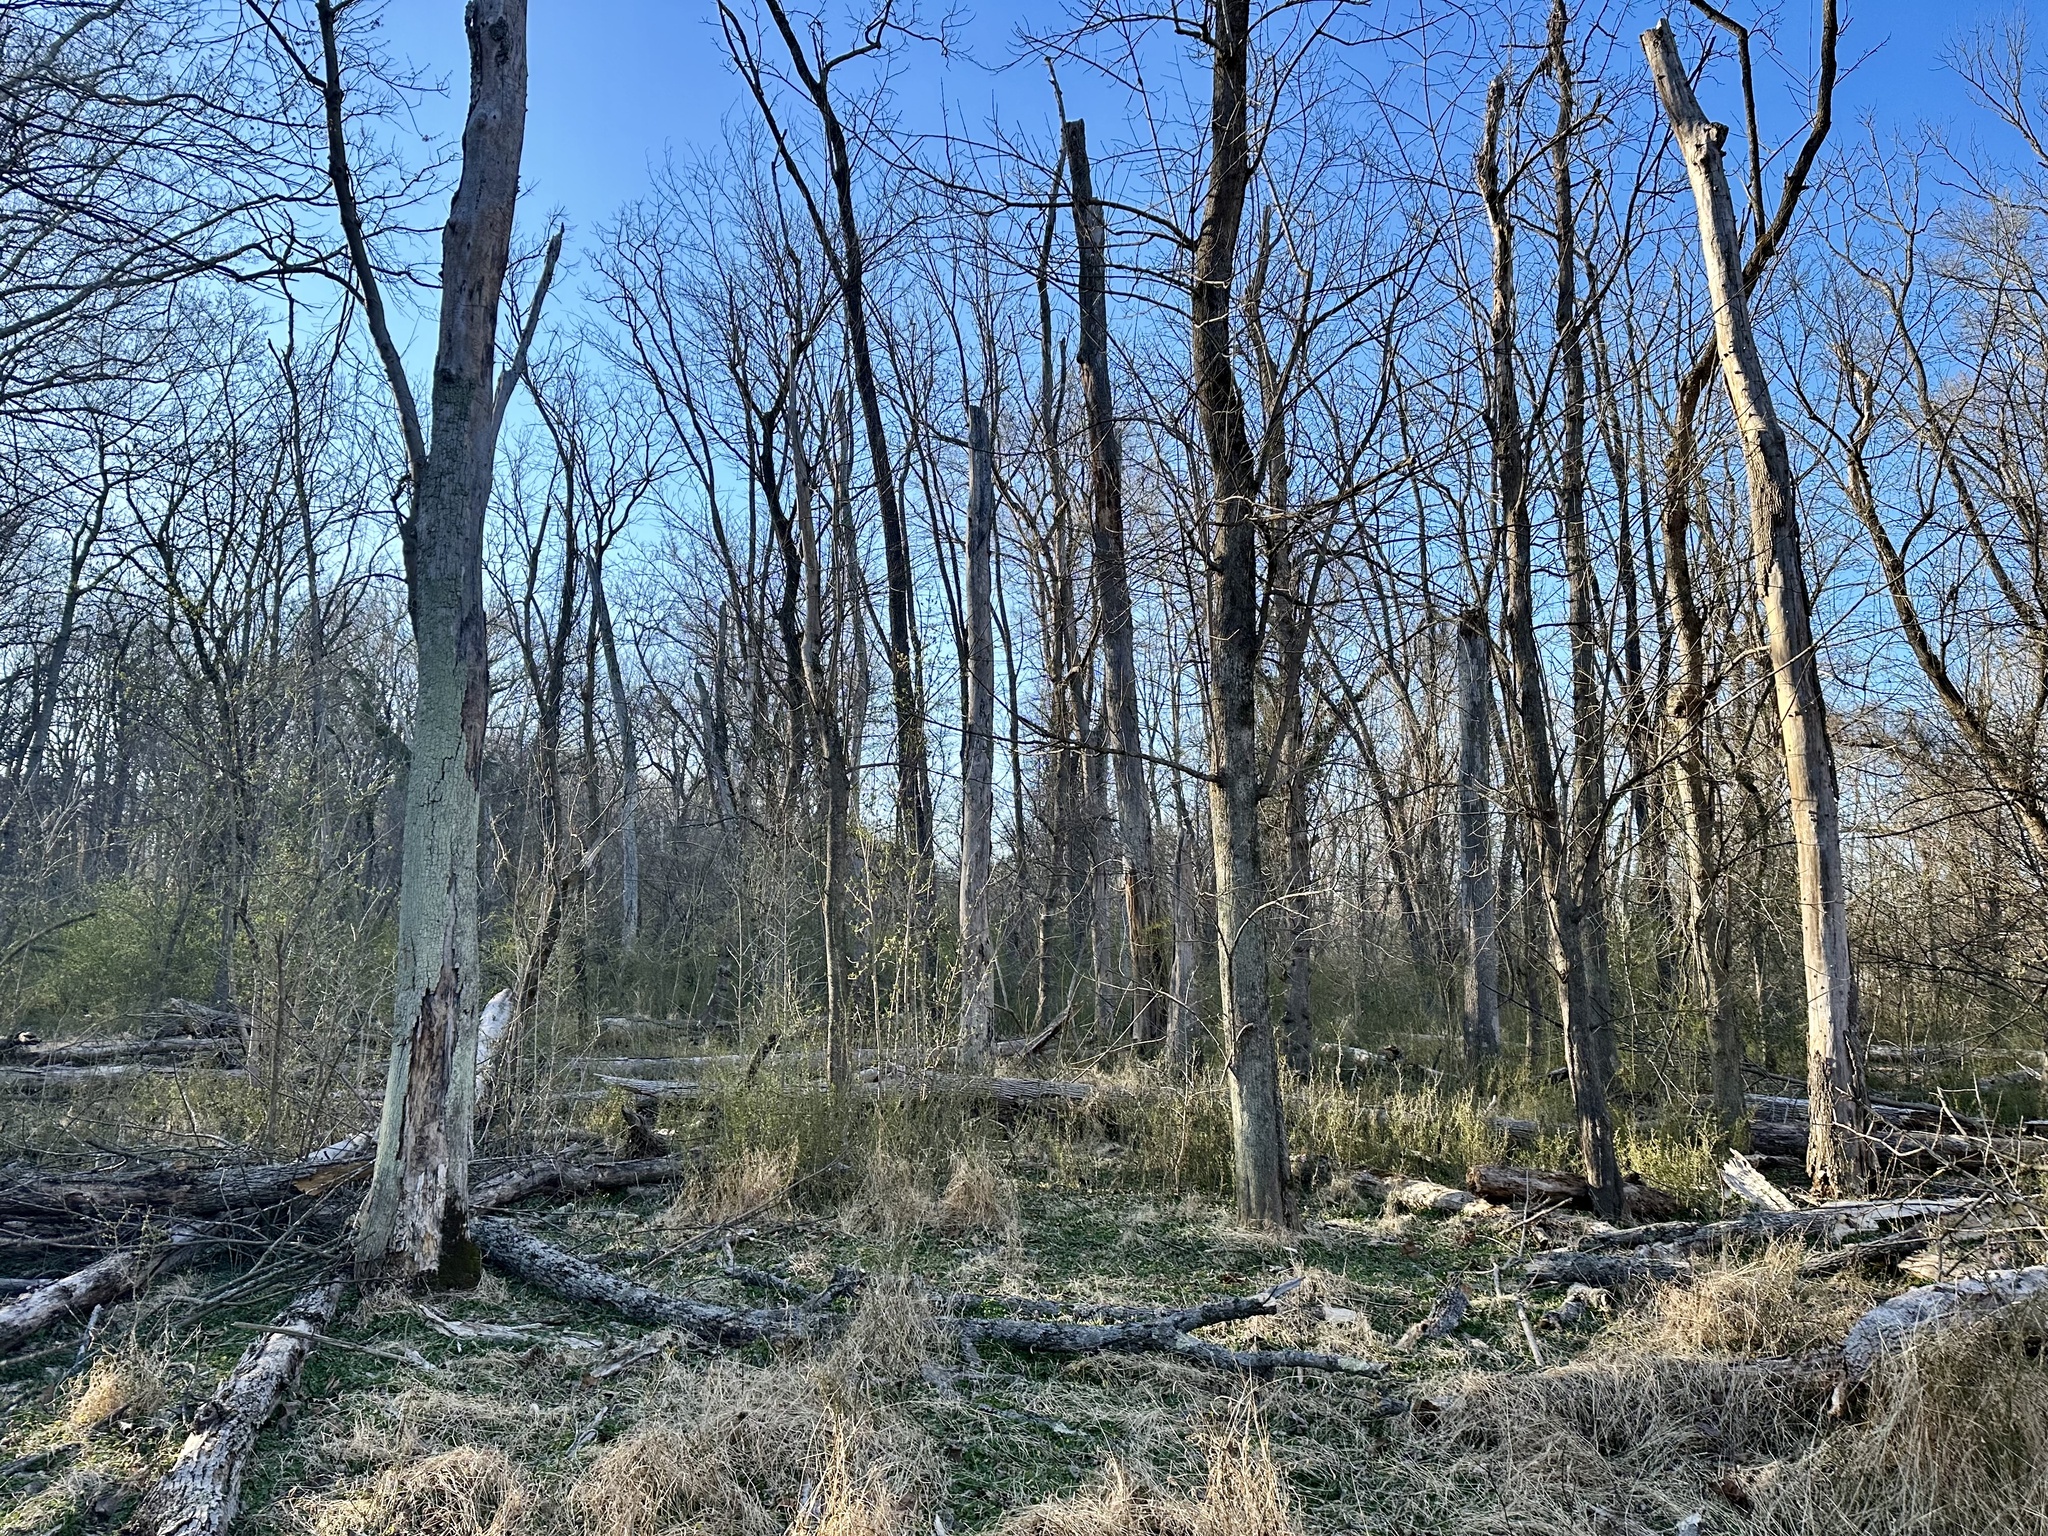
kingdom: Animalia
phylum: Arthropoda
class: Insecta
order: Coleoptera
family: Buprestidae
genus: Agrilus
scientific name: Agrilus planipennis
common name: Emerald ash borer
